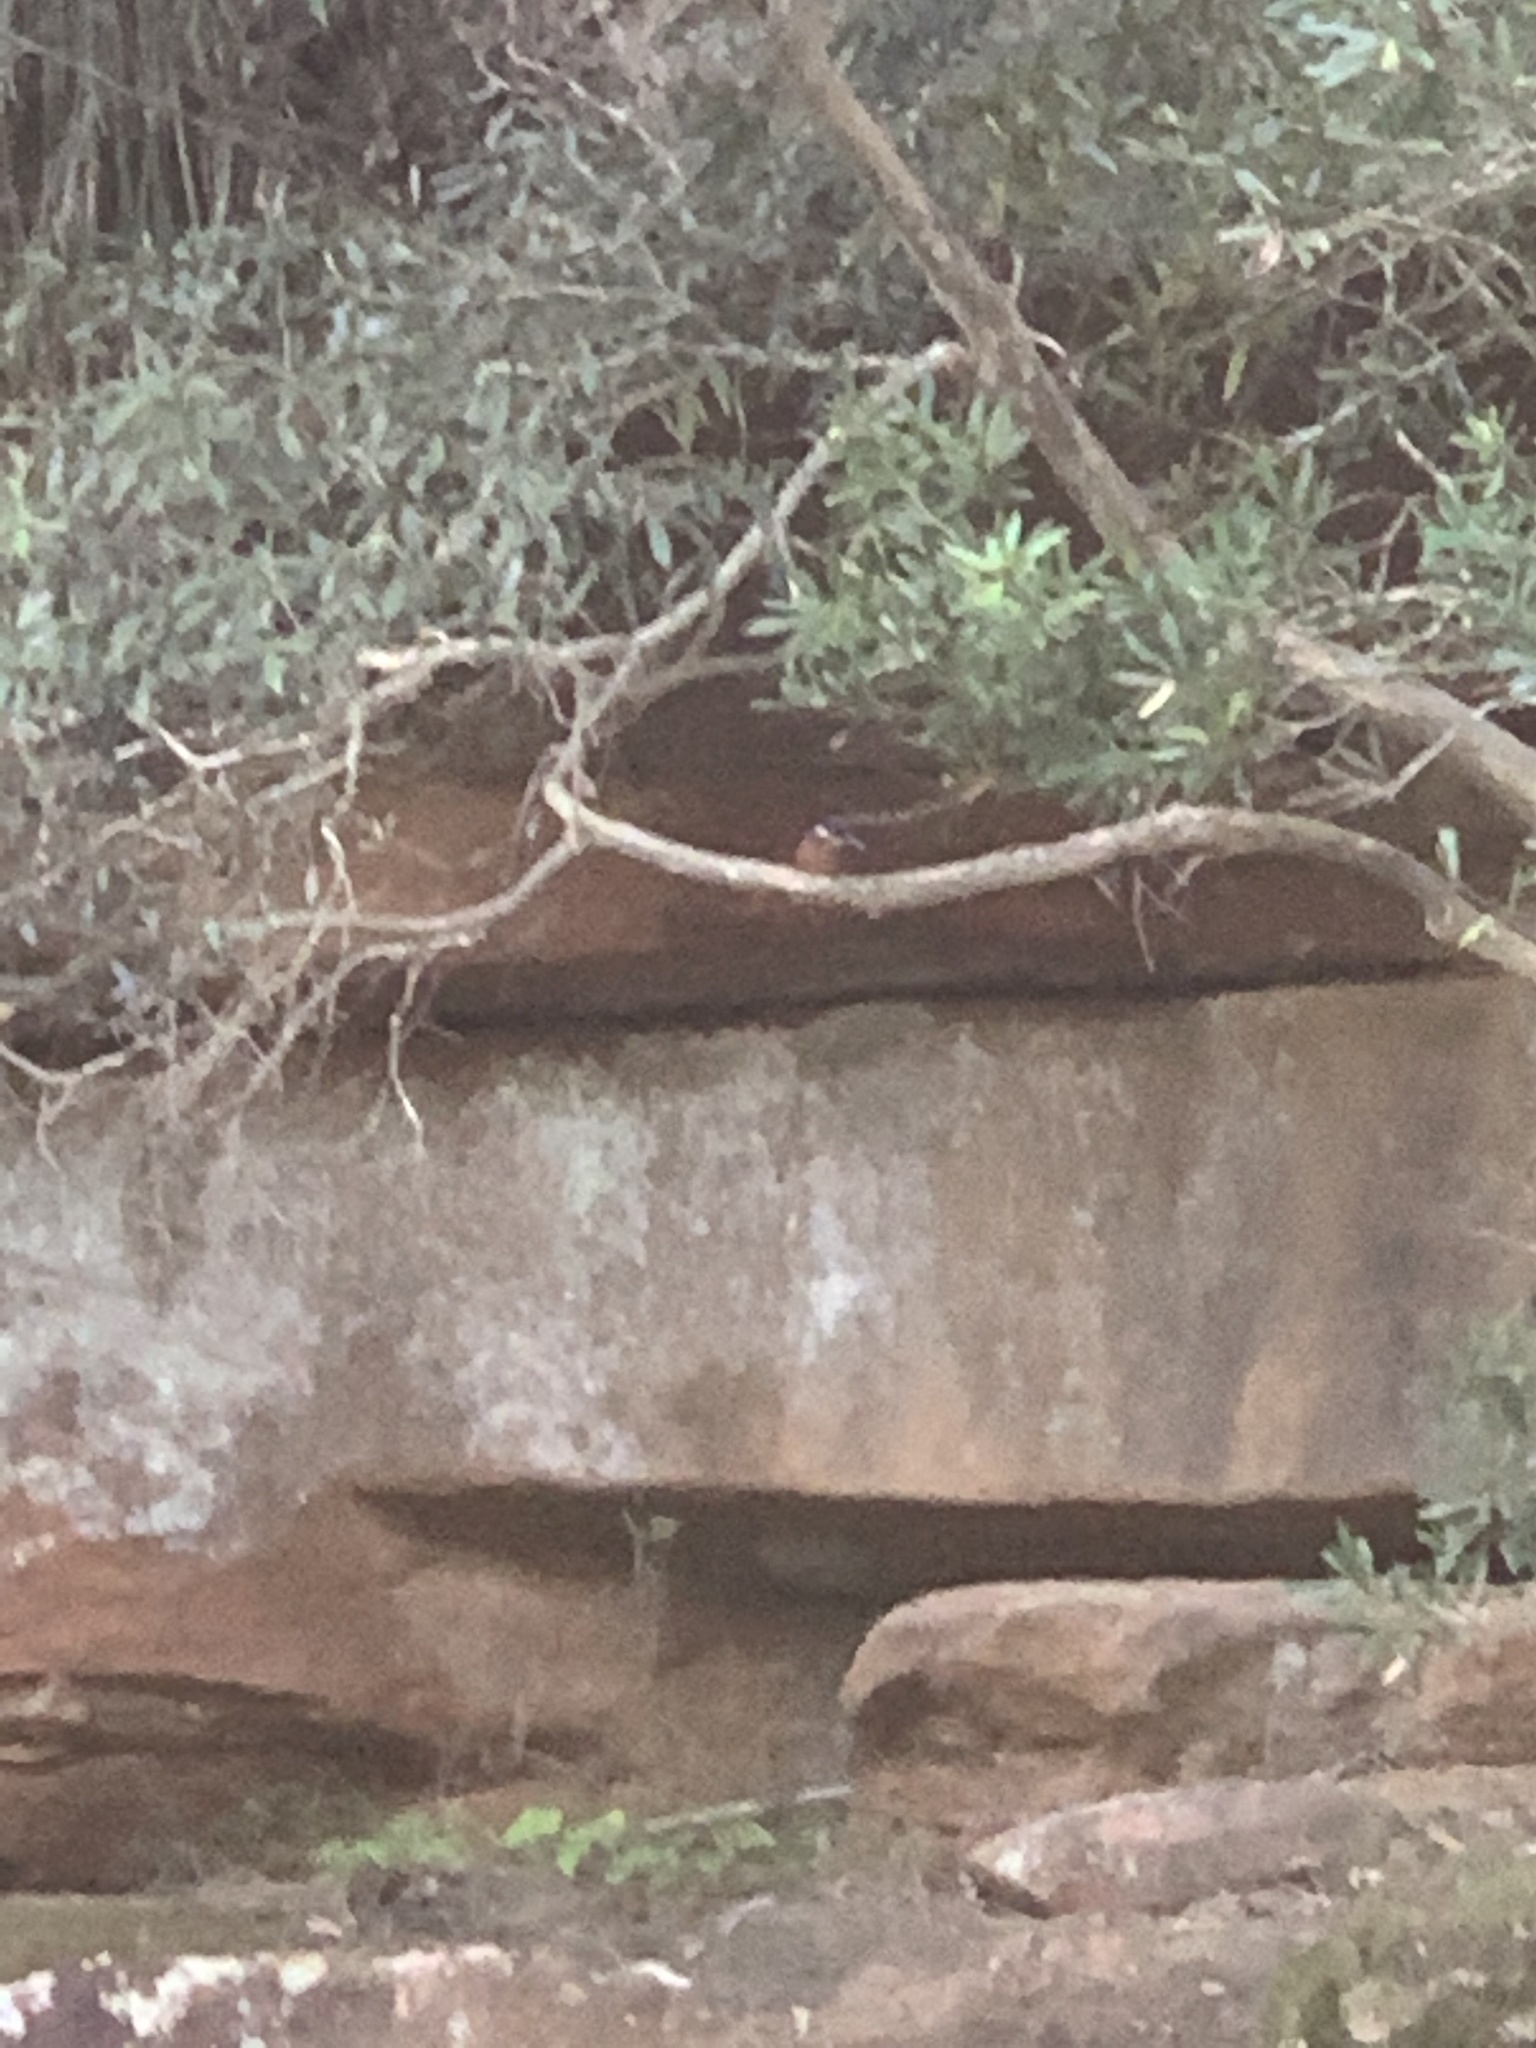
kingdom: Animalia
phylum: Chordata
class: Aves
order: Coraciiformes
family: Alcedinidae
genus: Ceyx
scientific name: Ceyx azureus
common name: Azure kingfisher
